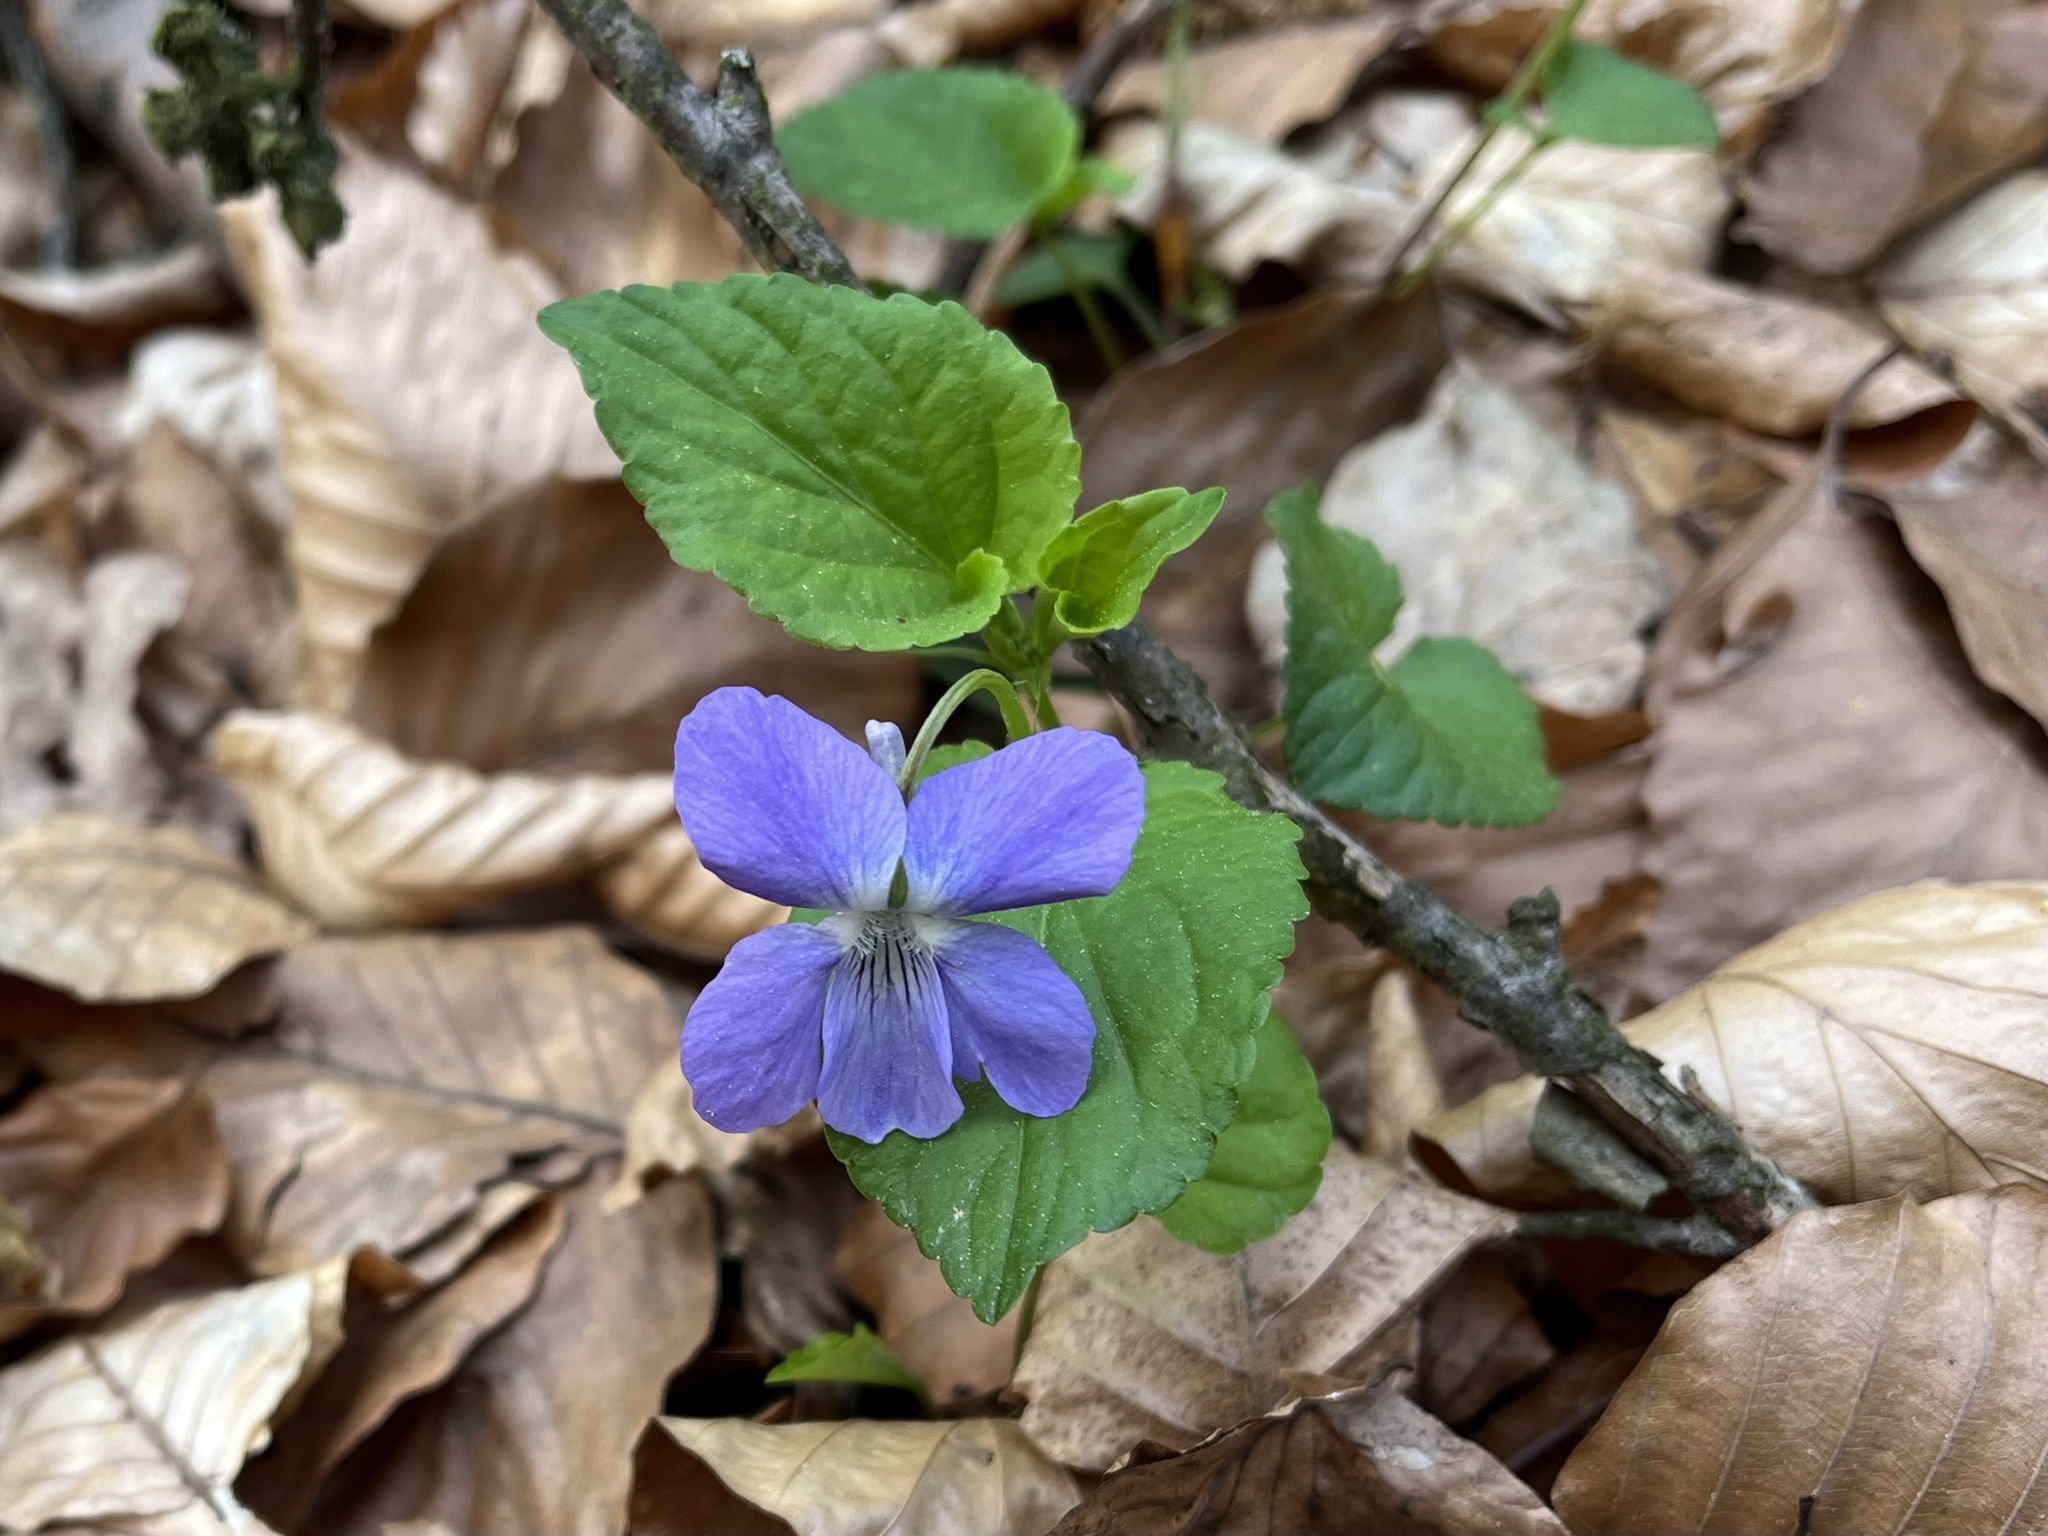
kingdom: Plantae
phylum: Tracheophyta
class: Magnoliopsida
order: Malpighiales
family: Violaceae
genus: Viola
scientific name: Viola riviniana
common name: Common dog-violet
